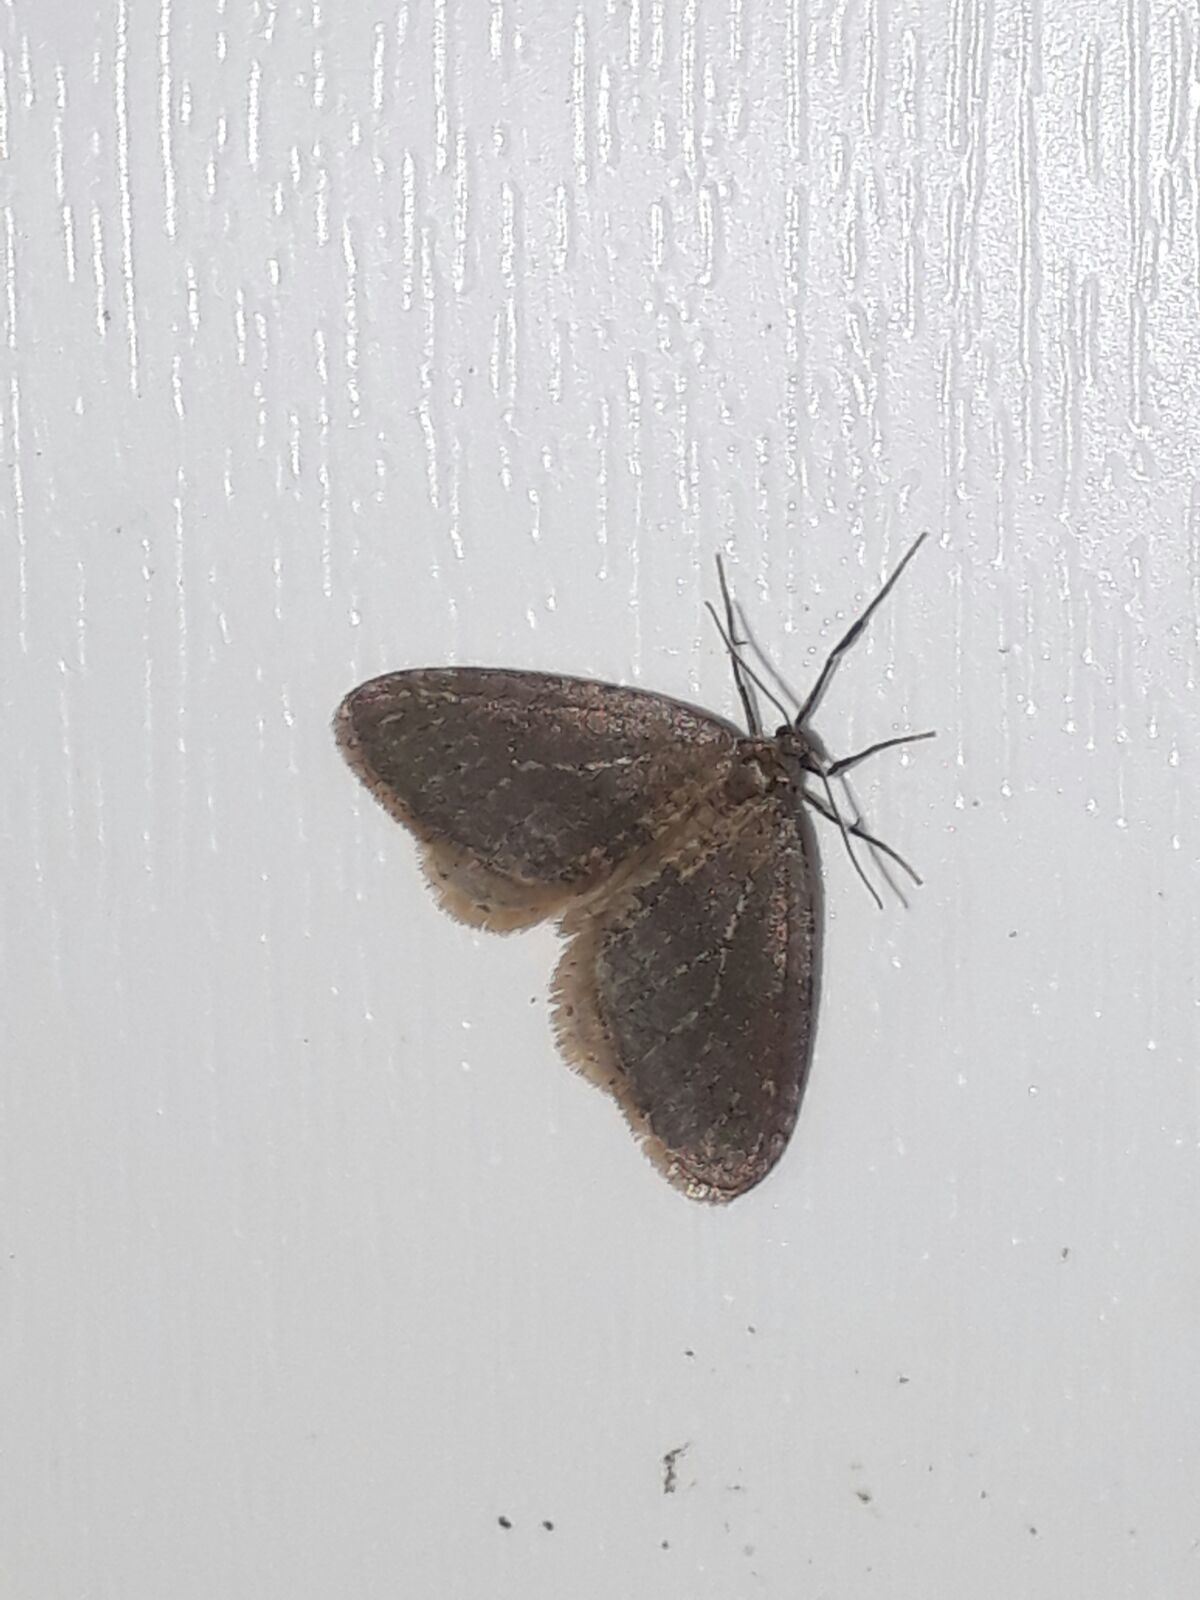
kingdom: Animalia
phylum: Arthropoda
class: Insecta
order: Lepidoptera
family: Geometridae
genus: Operophtera
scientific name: Operophtera brumata
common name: Winter moth
